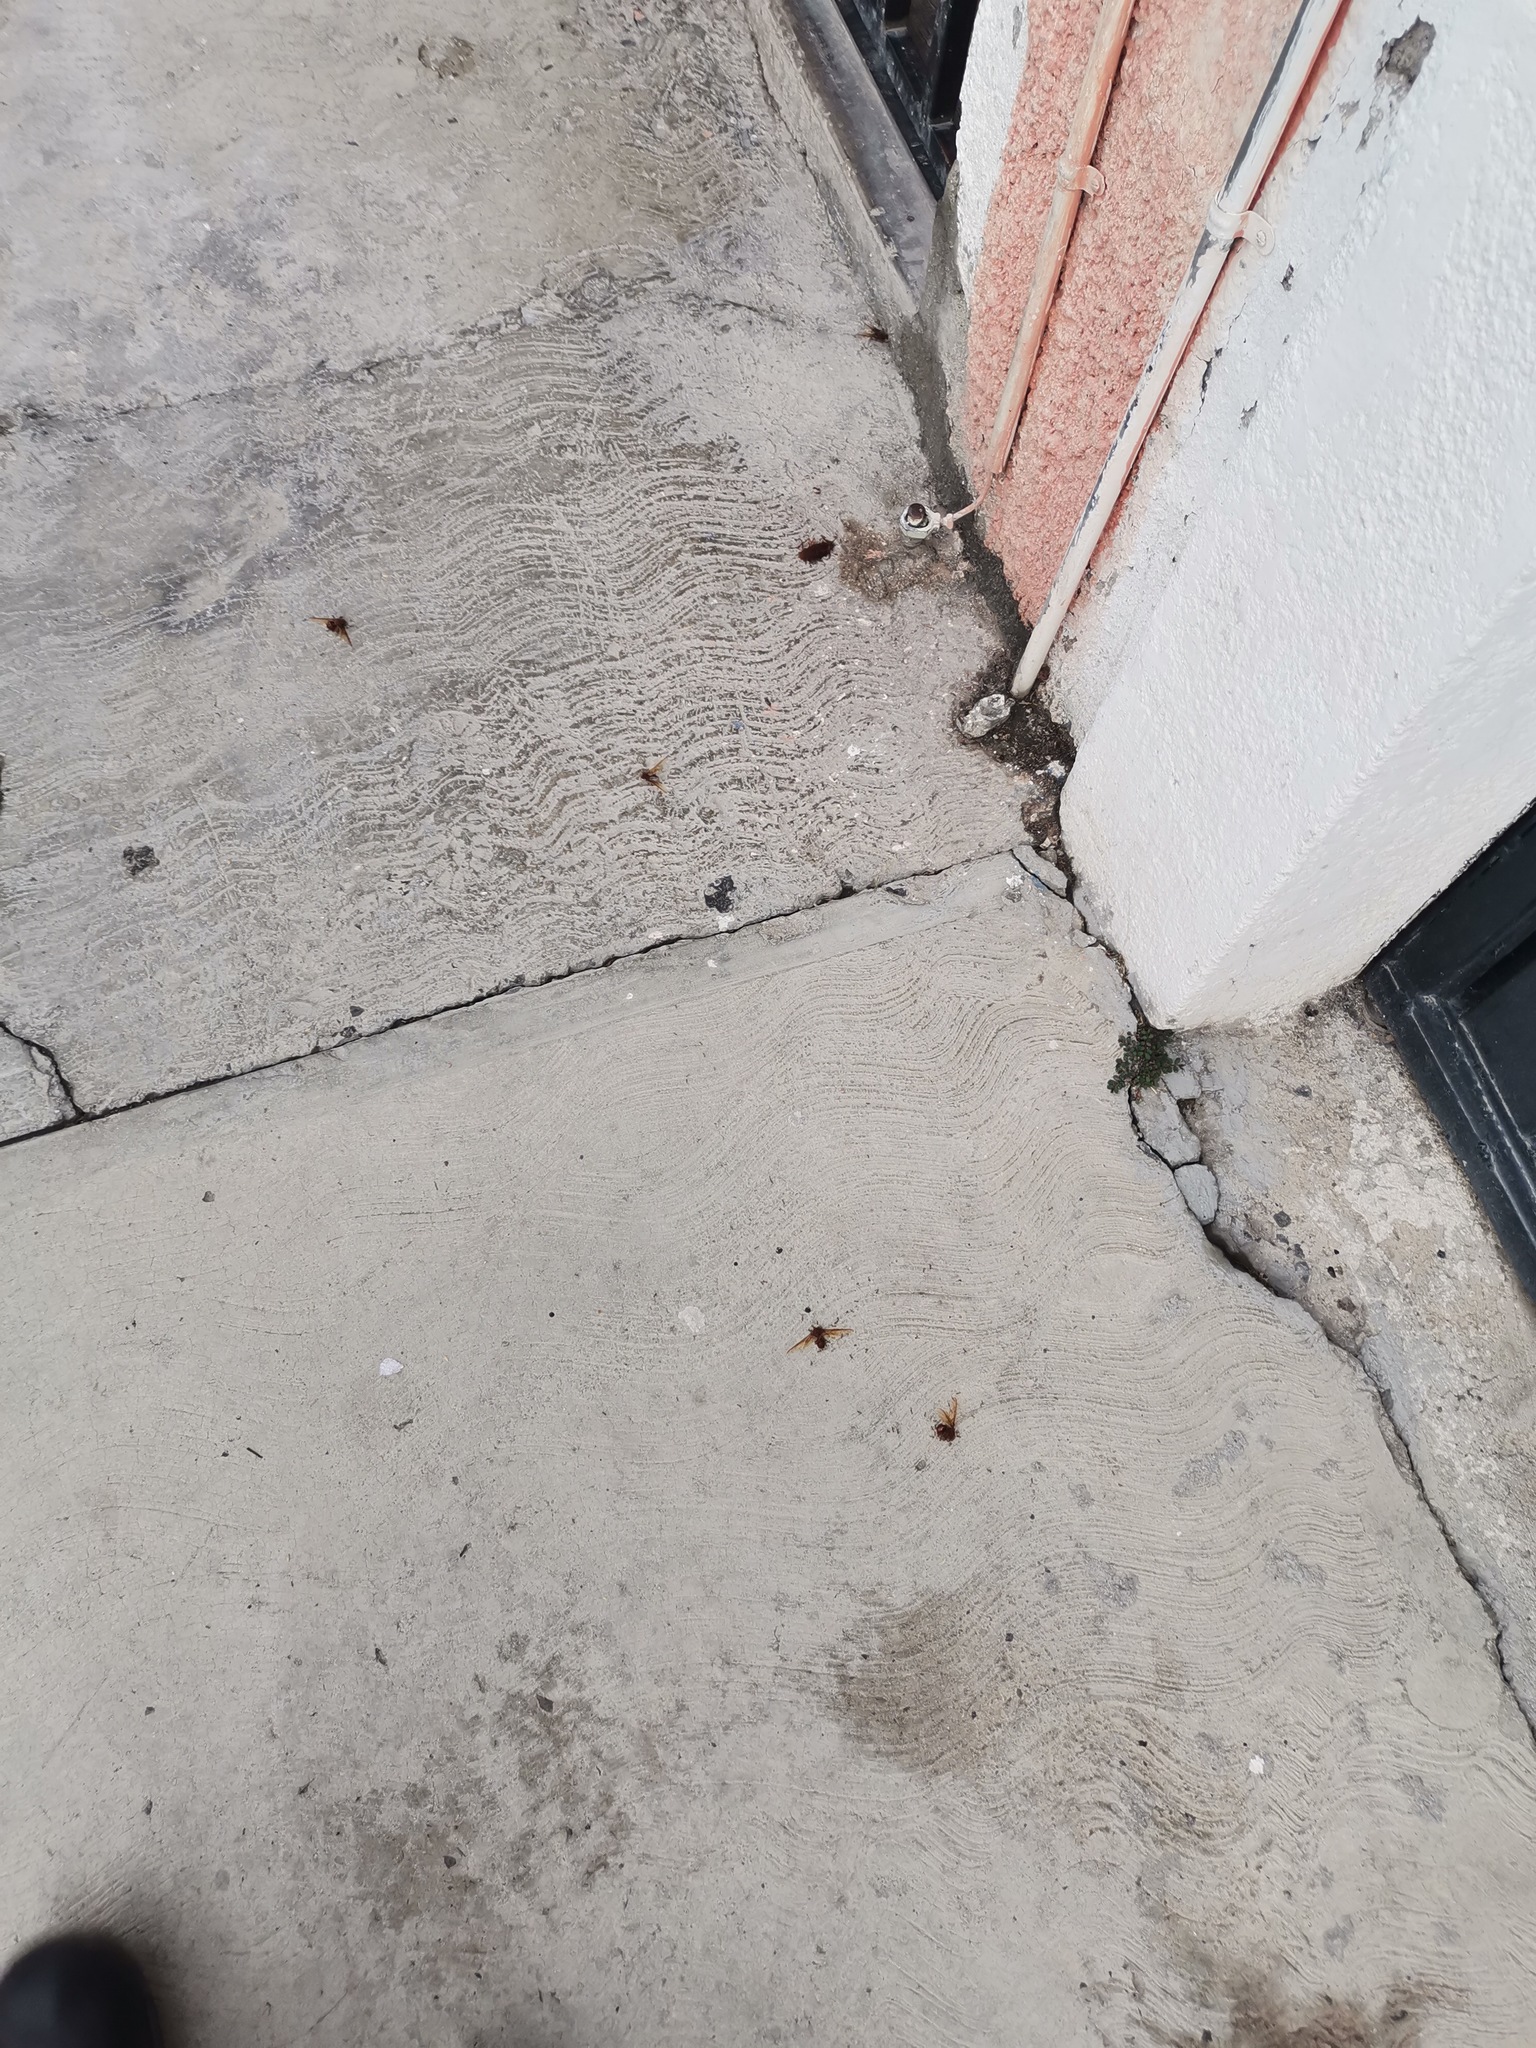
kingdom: Animalia
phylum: Arthropoda
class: Insecta
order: Hymenoptera
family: Formicidae
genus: Atta
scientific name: Atta mexicana
